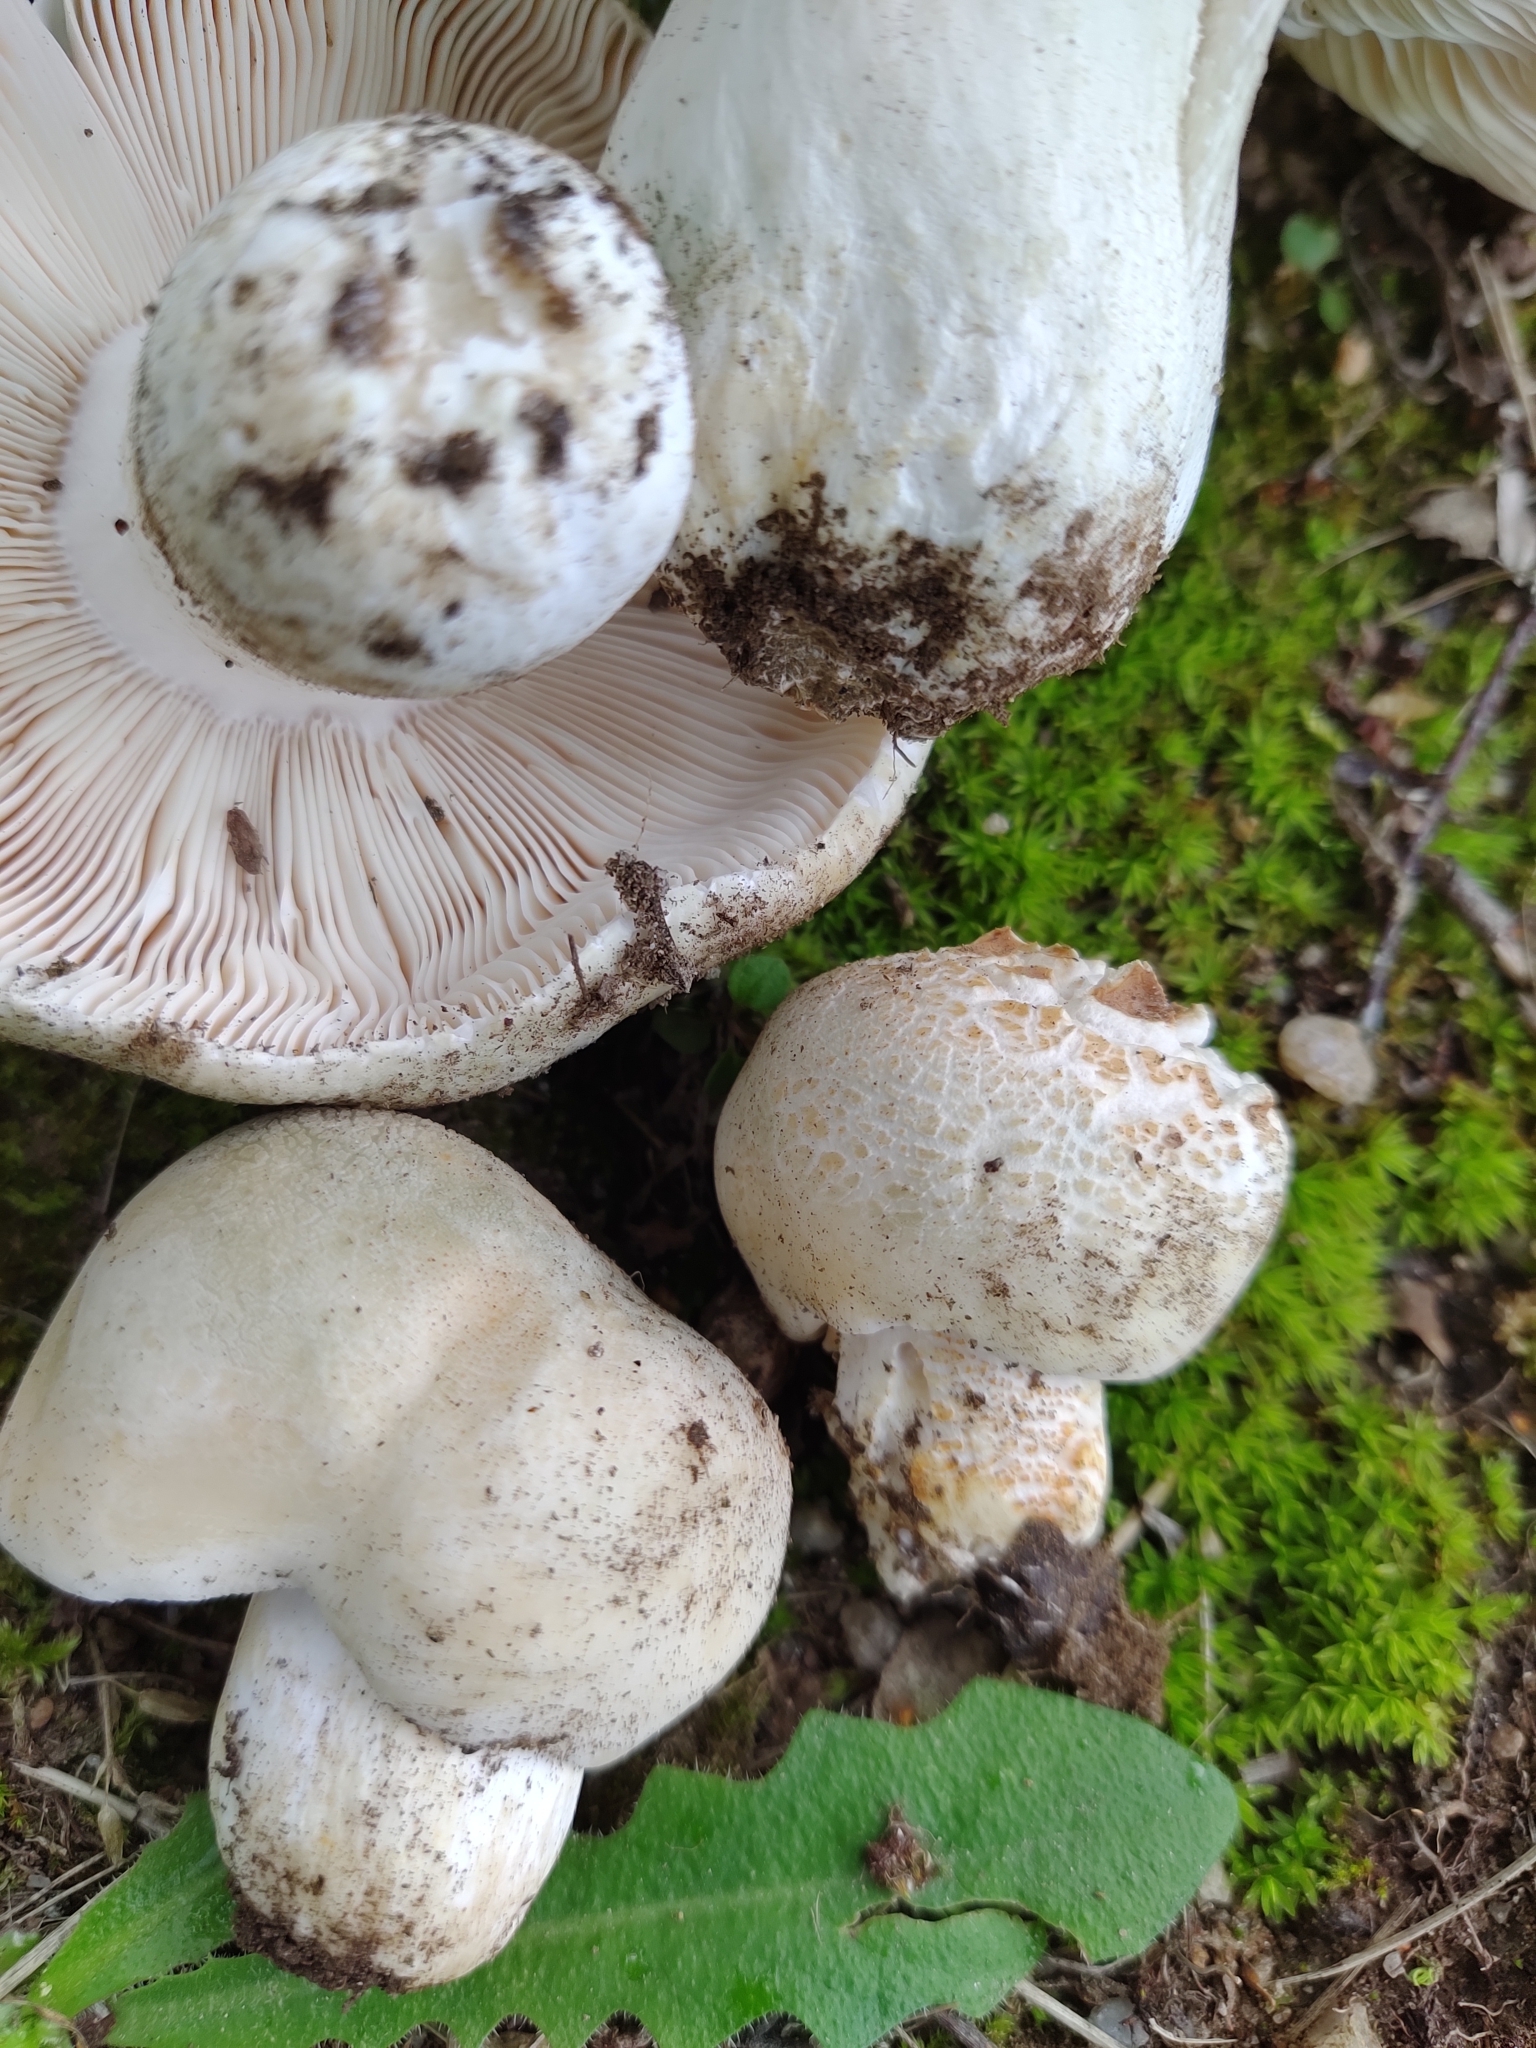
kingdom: Fungi
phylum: Basidiomycota
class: Agaricomycetes
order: Russulales
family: Russulaceae
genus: Russula
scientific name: Russula virescens
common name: Greencracked brittlegill
